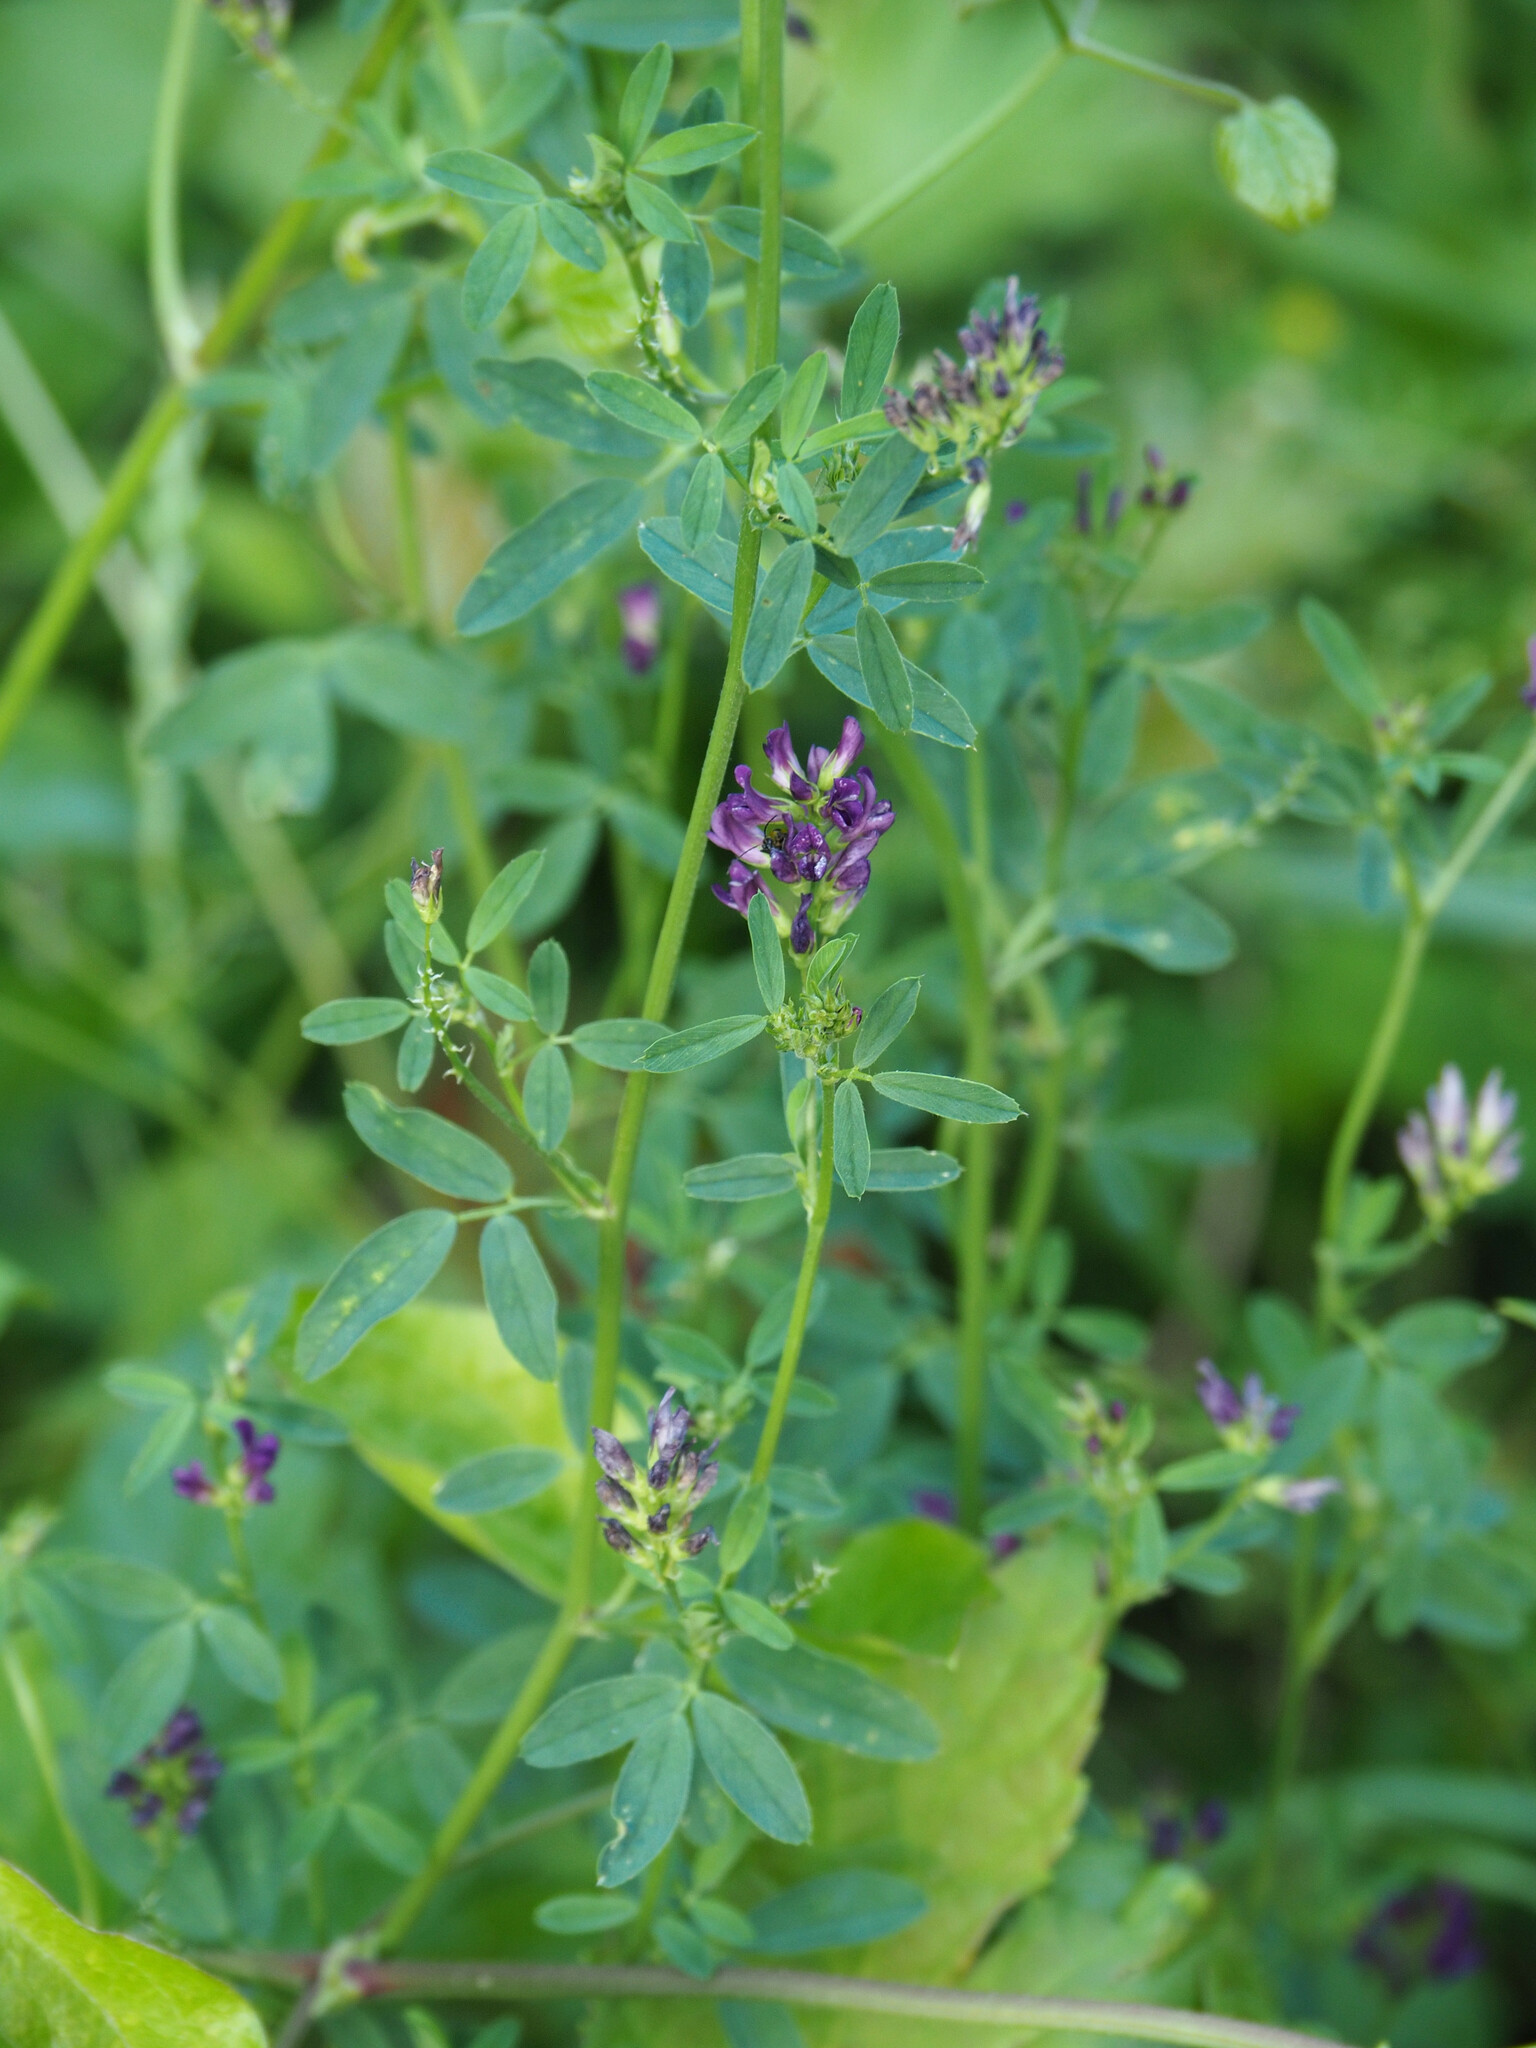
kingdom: Plantae
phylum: Tracheophyta
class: Magnoliopsida
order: Fabales
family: Fabaceae
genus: Medicago
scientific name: Medicago sativa
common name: Alfalfa
